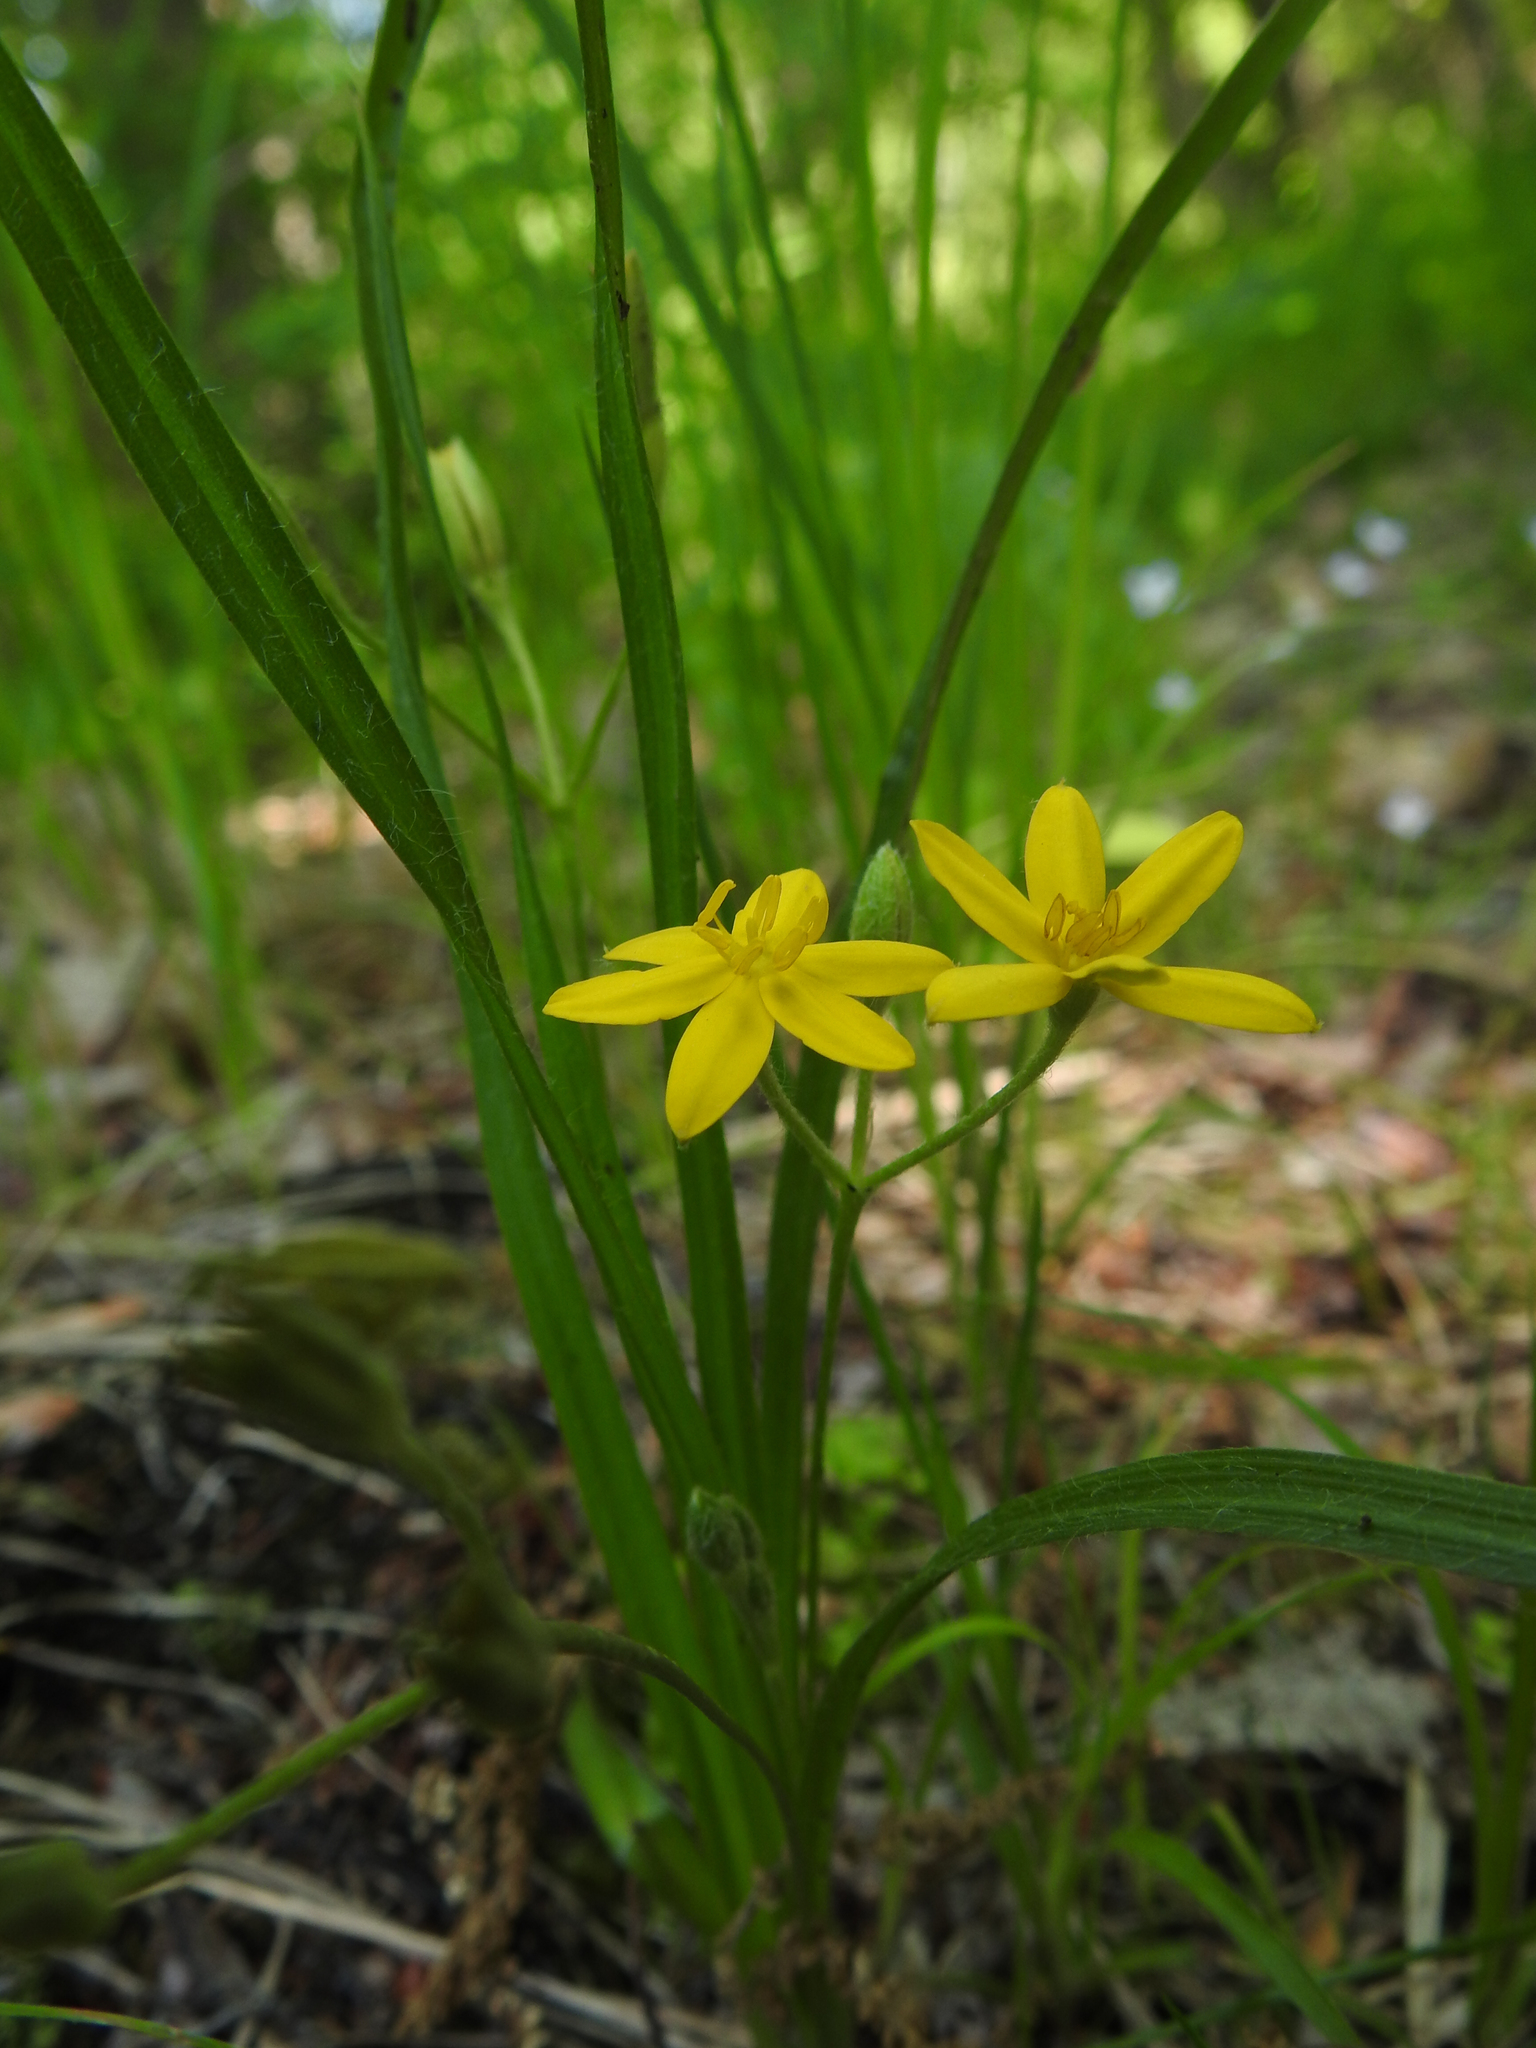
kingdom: Plantae
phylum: Tracheophyta
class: Liliopsida
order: Asparagales
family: Hypoxidaceae
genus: Hypoxis
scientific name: Hypoxis hirsuta
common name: Common goldstar
